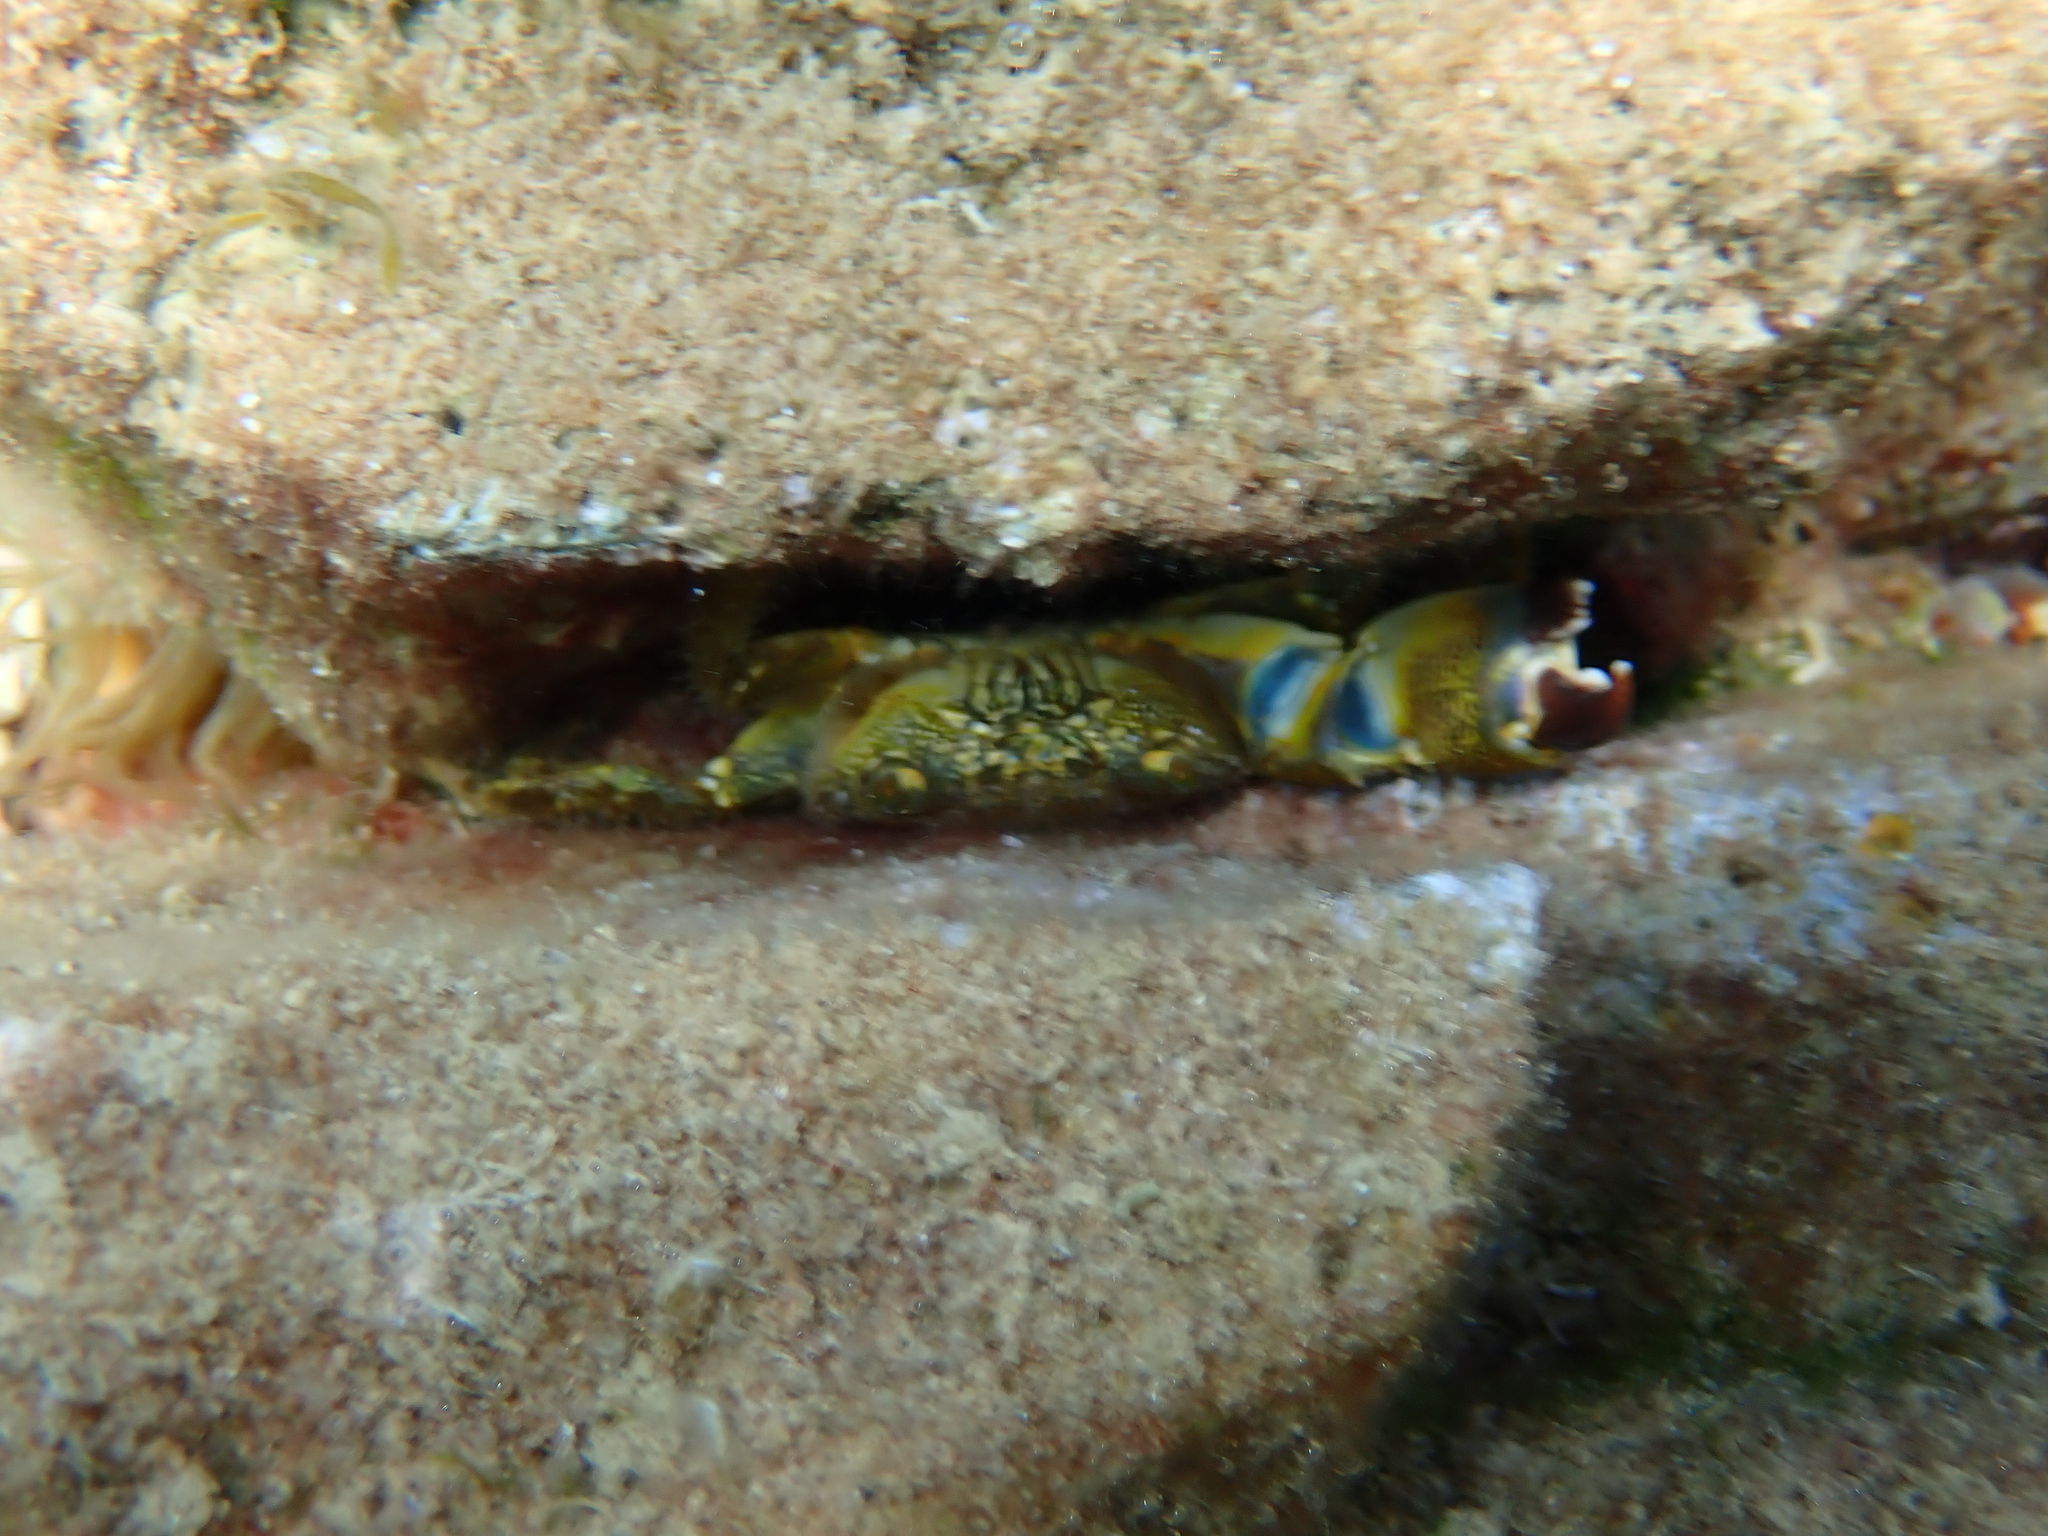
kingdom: Animalia
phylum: Arthropoda
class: Malacostraca
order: Decapoda
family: Eriphiidae
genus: Eriphia
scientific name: Eriphia verrucosa
